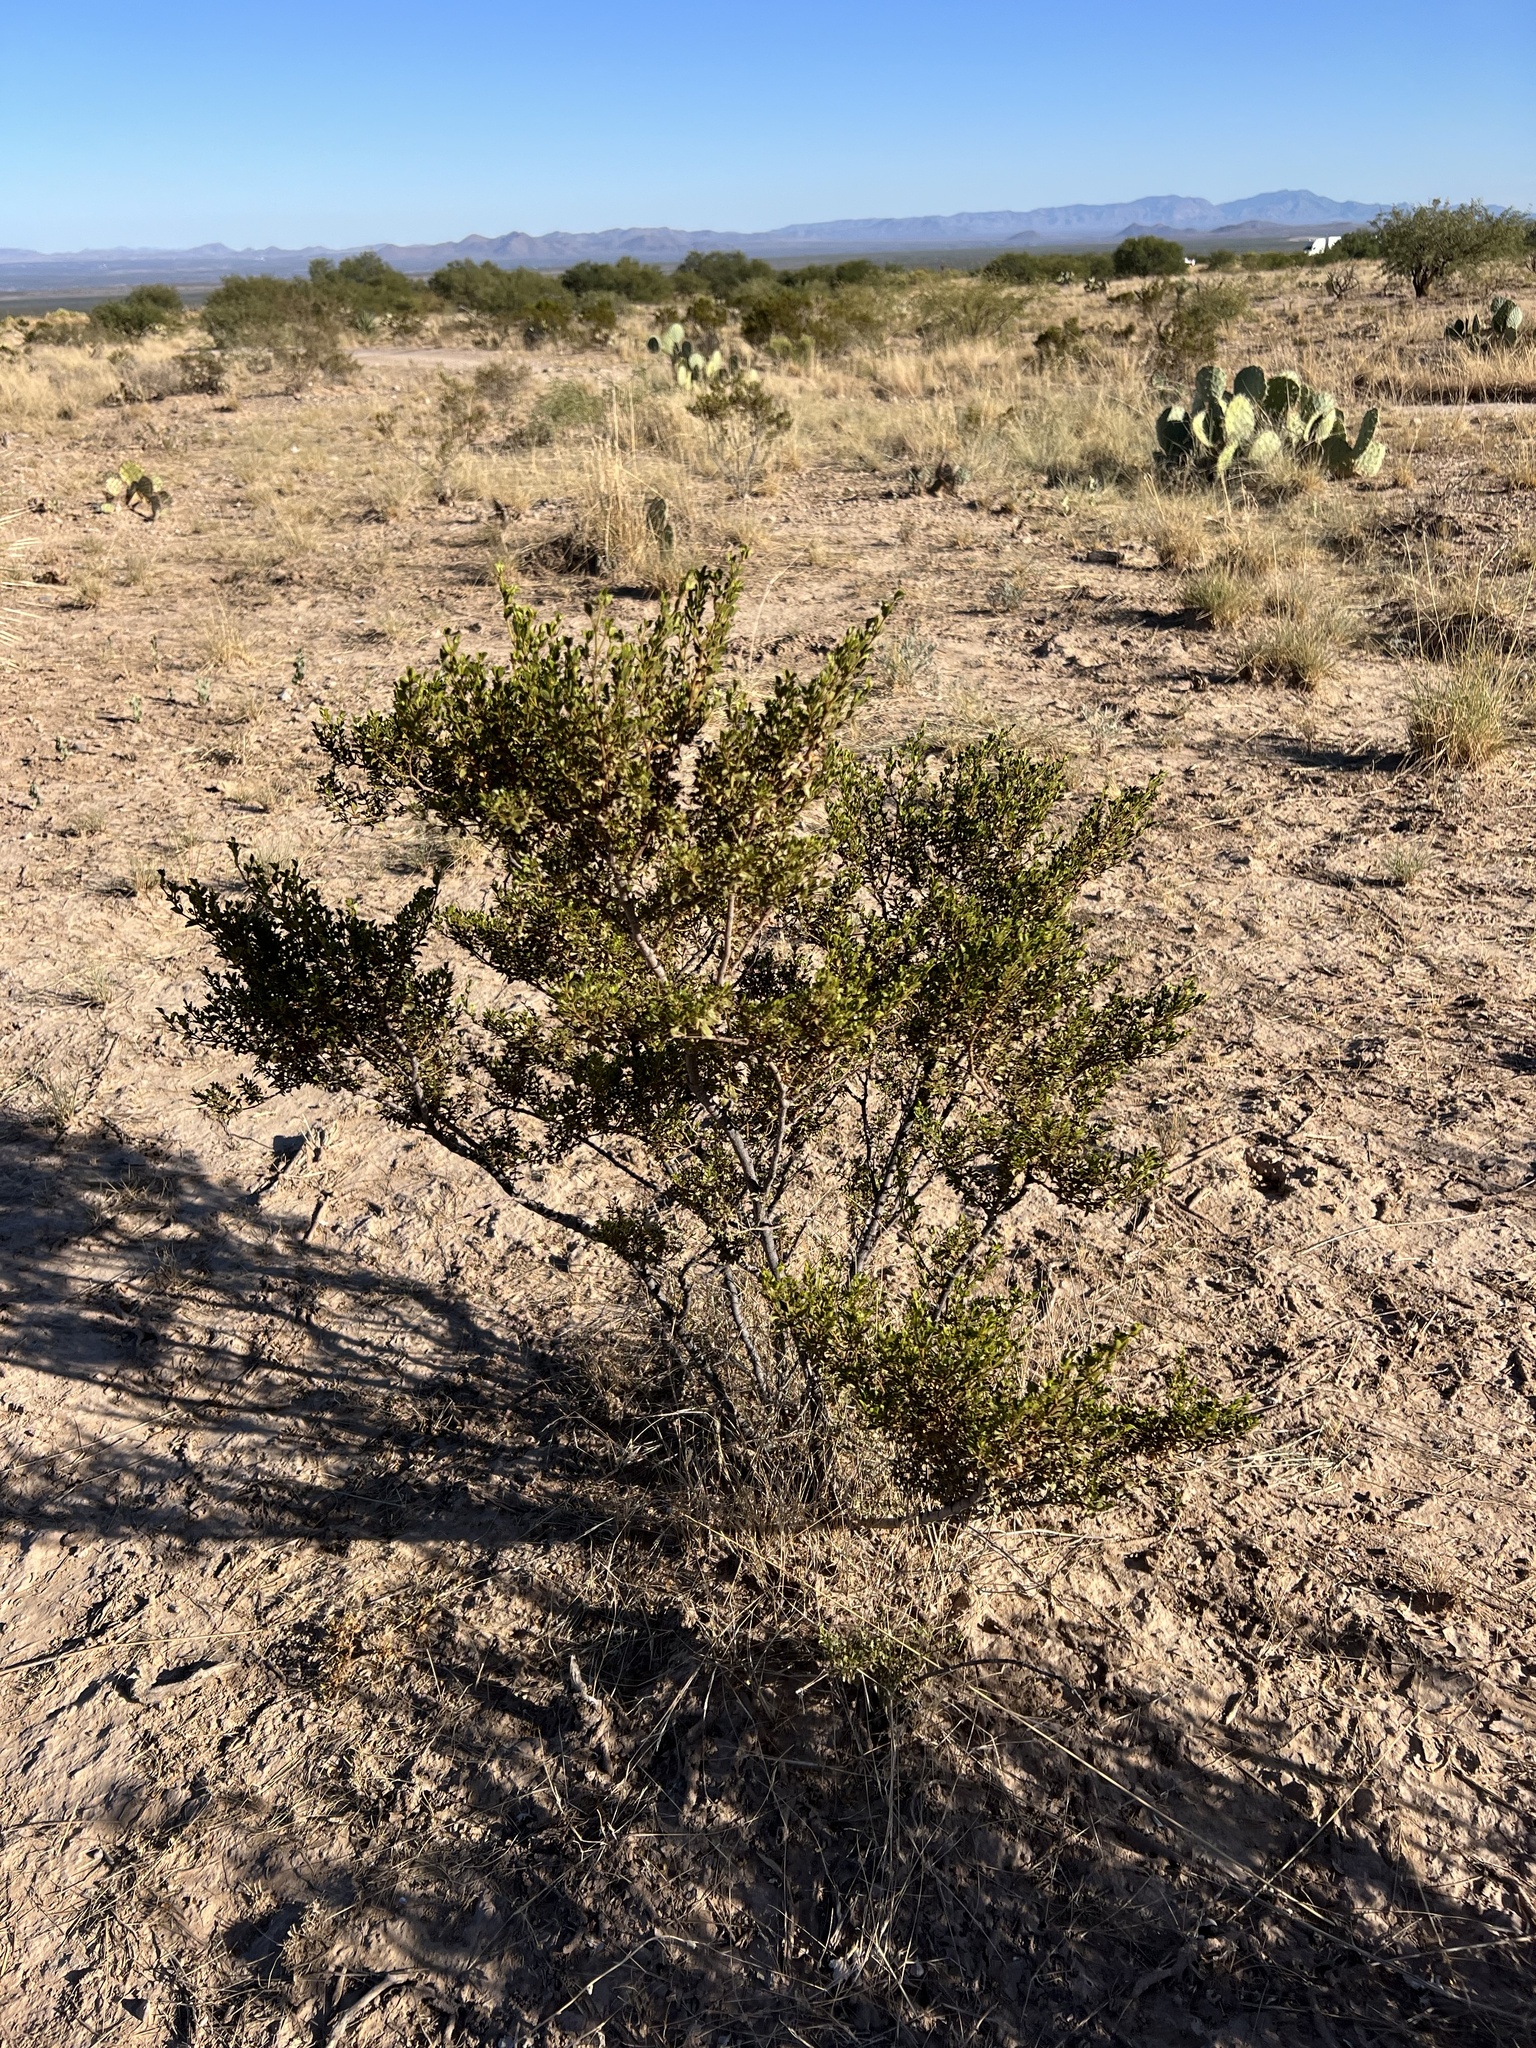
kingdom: Plantae
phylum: Tracheophyta
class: Magnoliopsida
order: Zygophyllales
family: Zygophyllaceae
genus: Larrea
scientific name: Larrea tridentata
